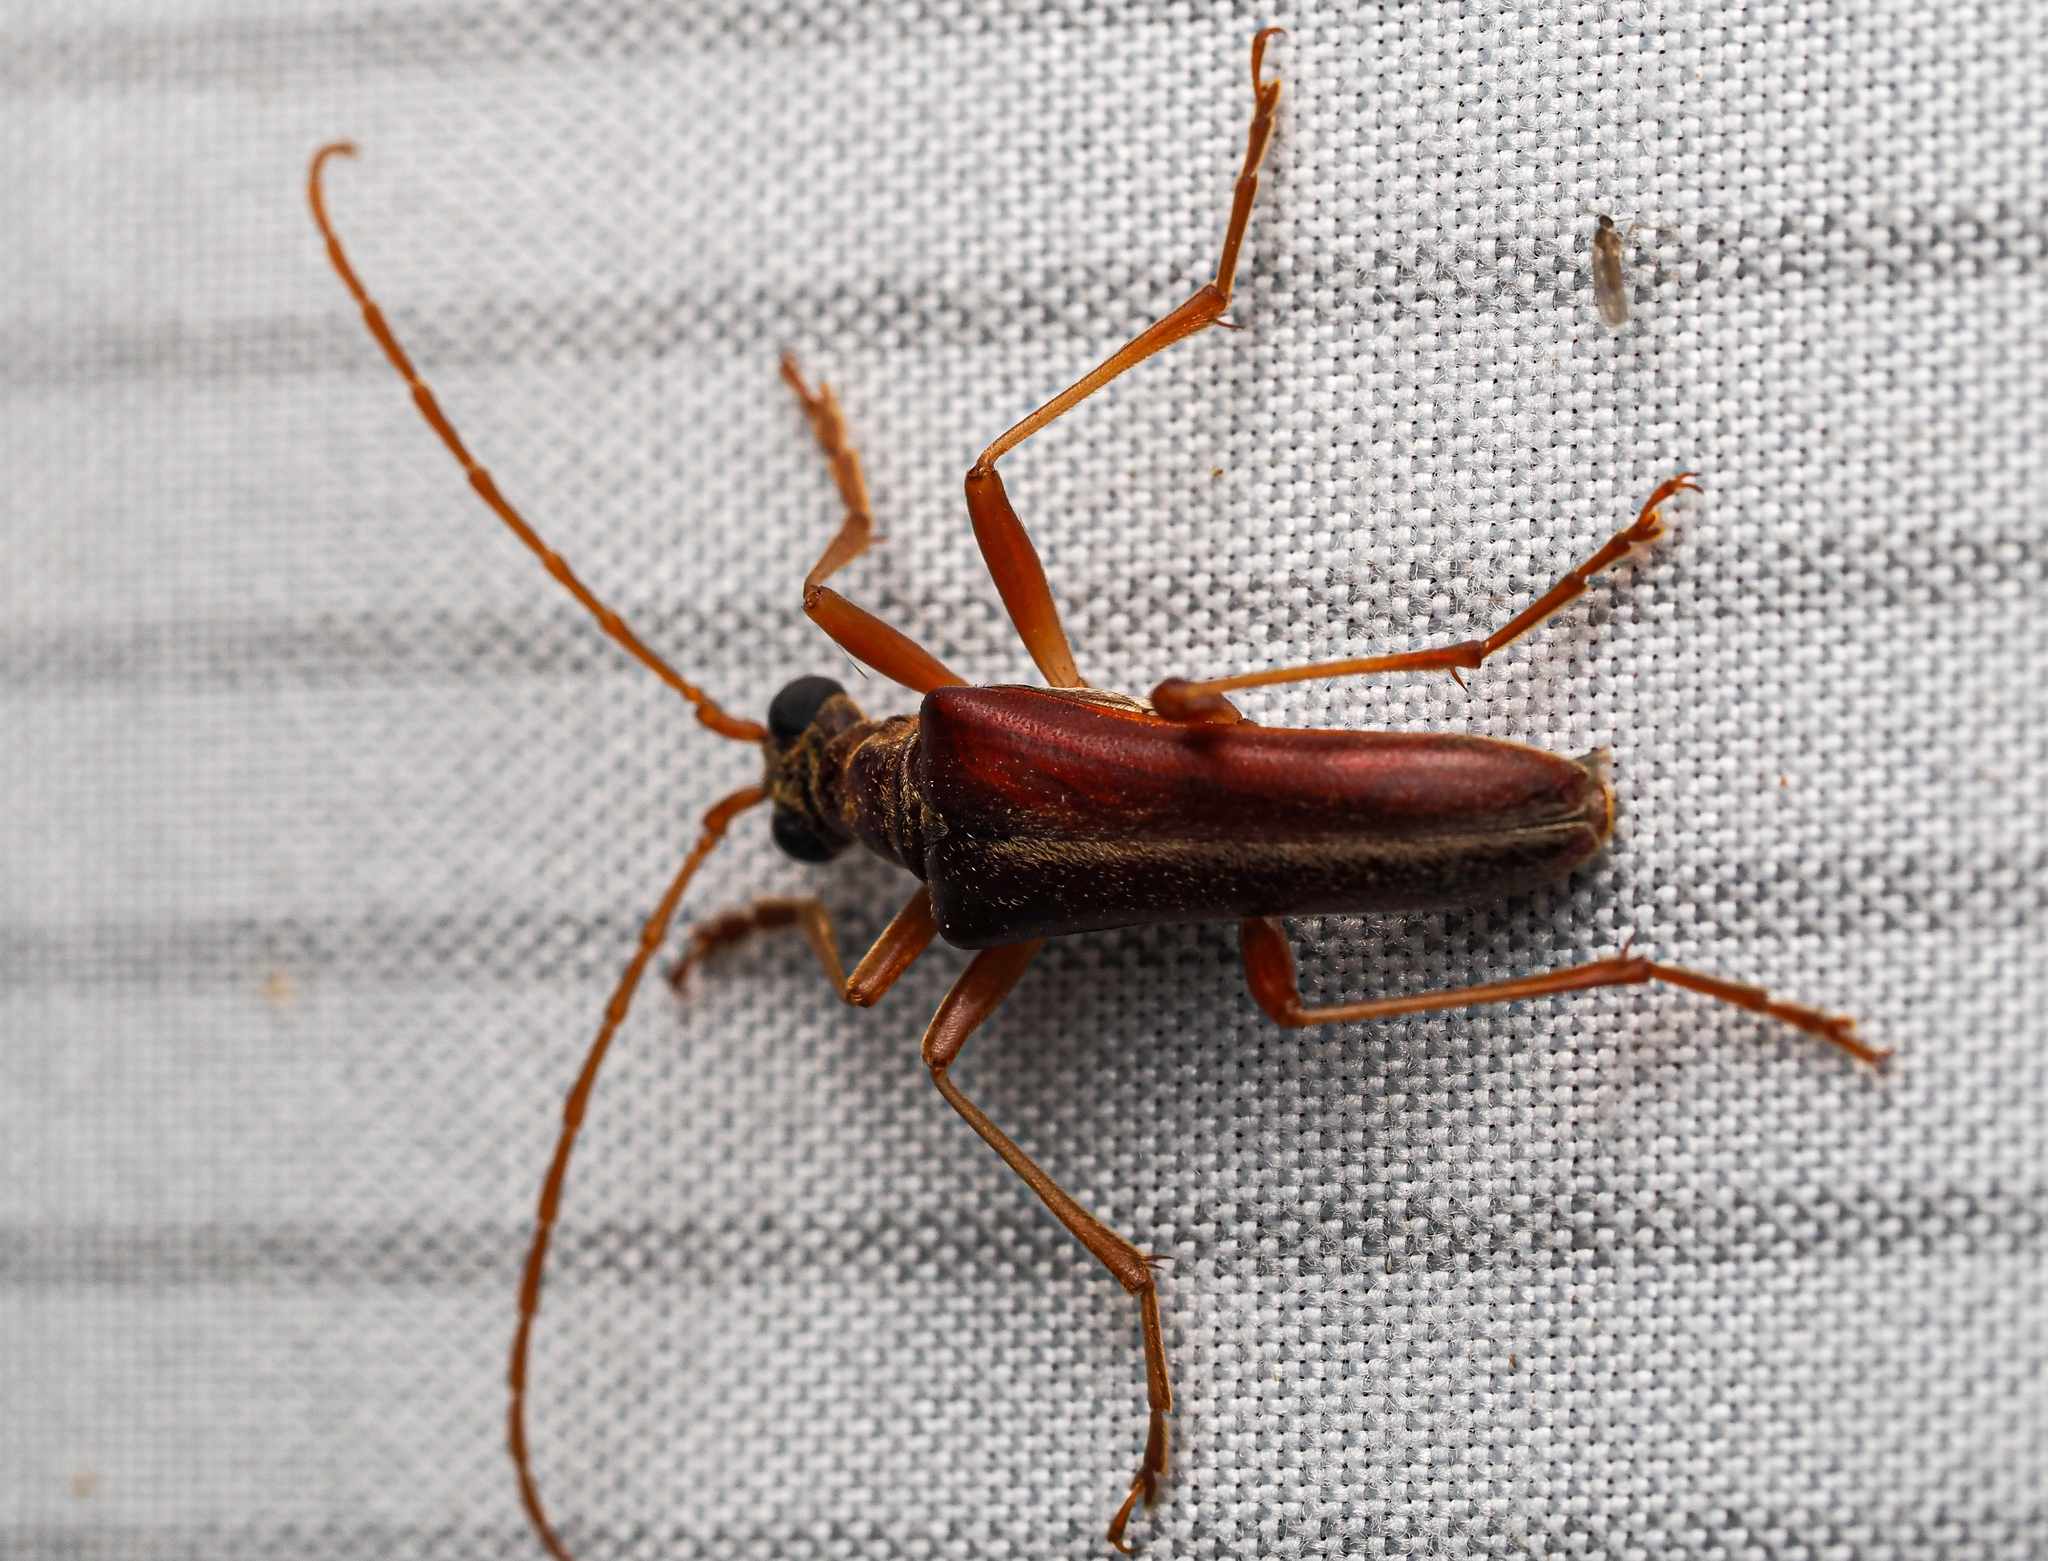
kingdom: Animalia
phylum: Arthropoda
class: Insecta
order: Coleoptera
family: Cerambycidae
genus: Stenocorus
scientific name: Stenocorus cinnamopterus
